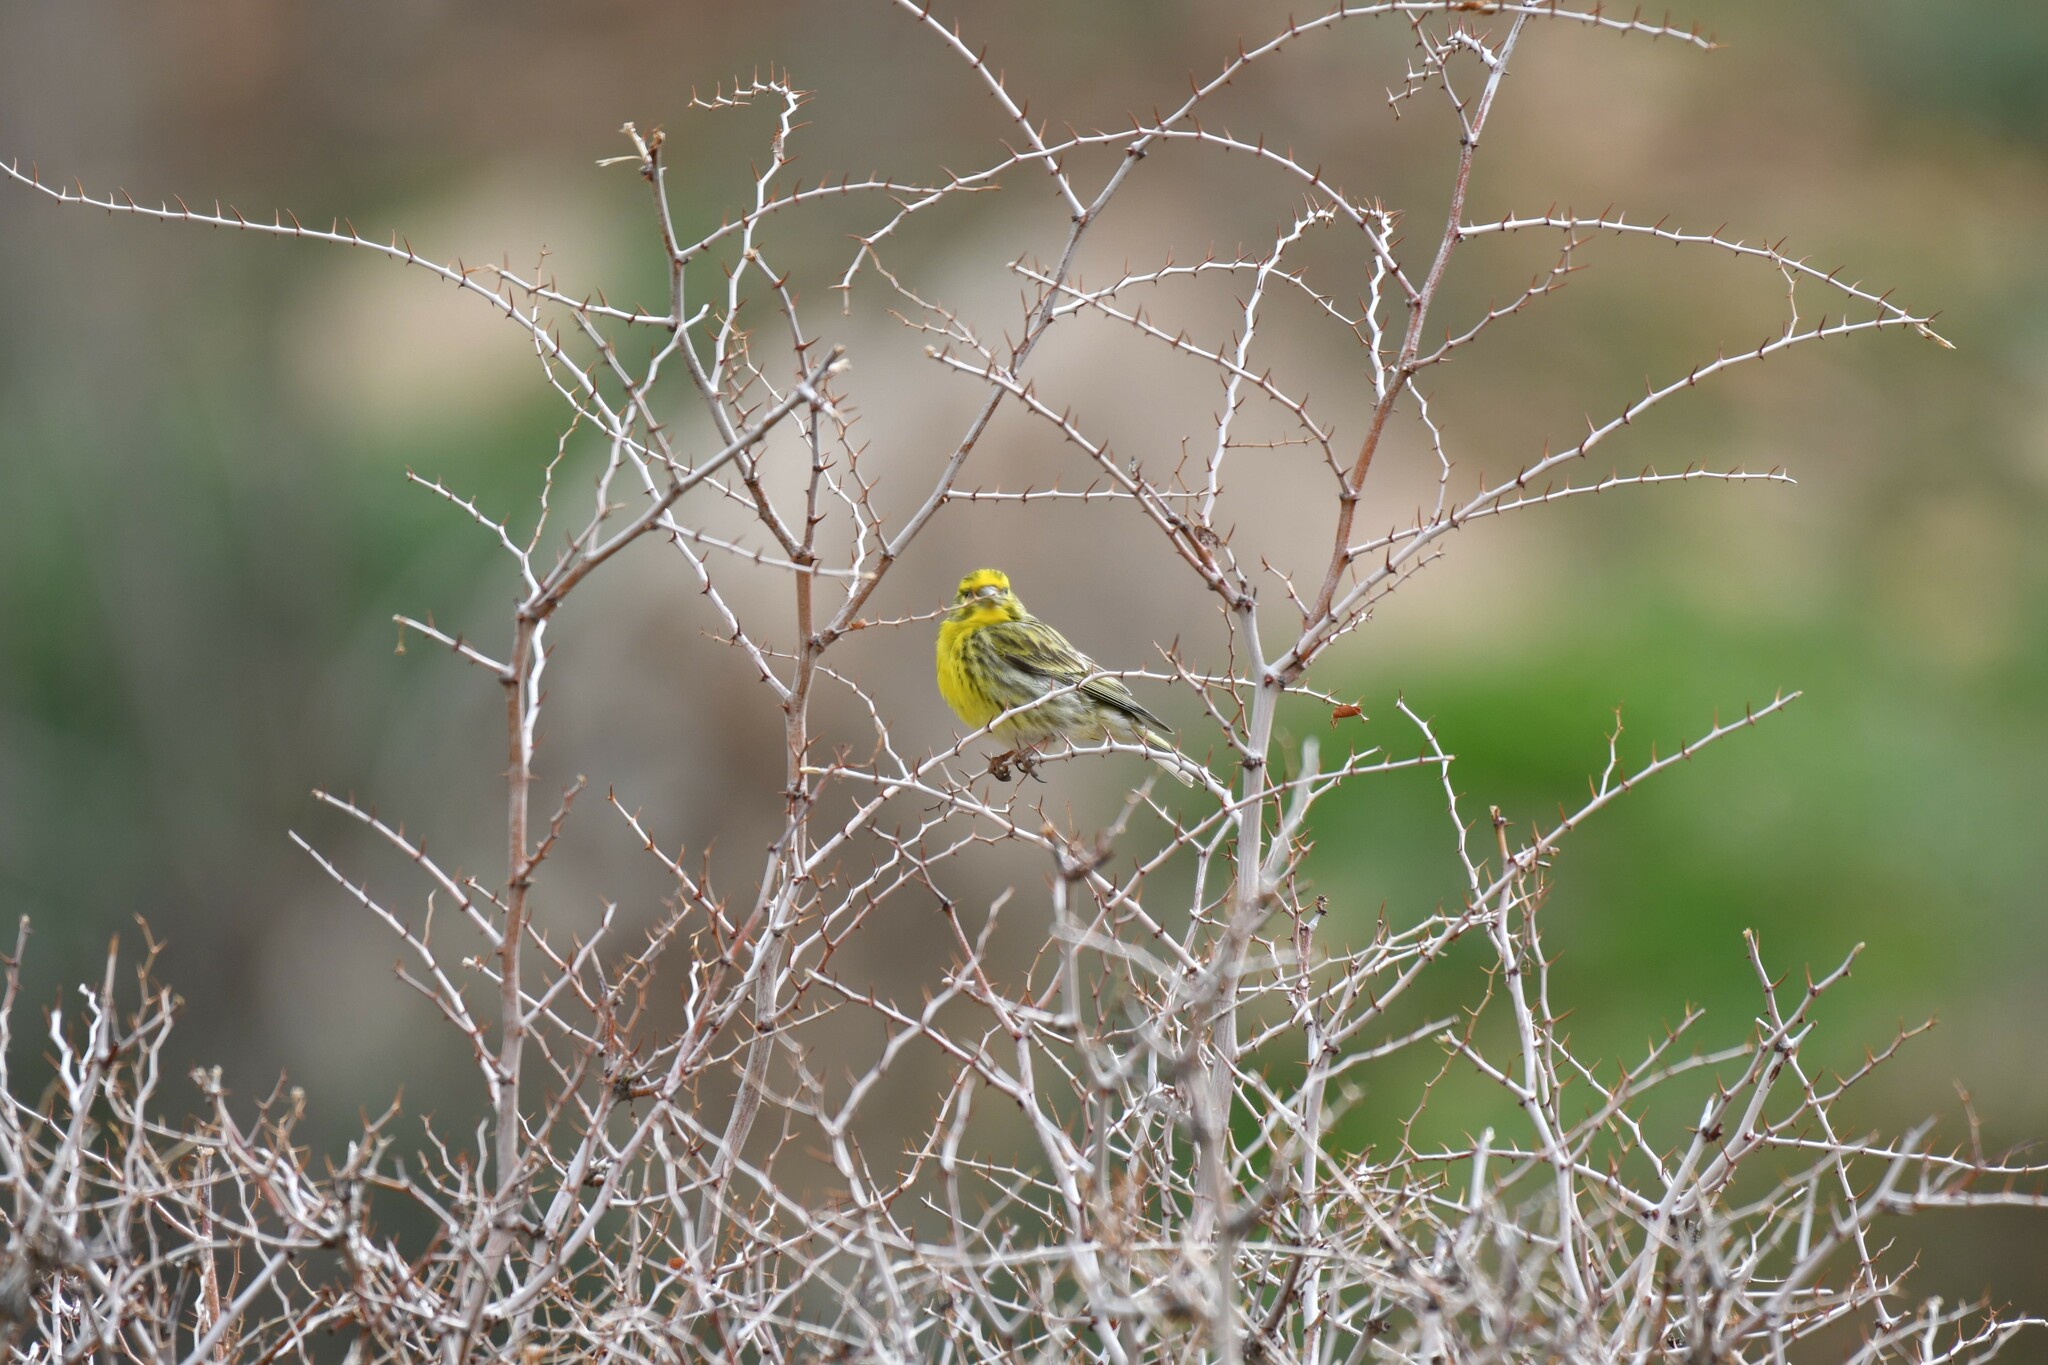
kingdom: Animalia
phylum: Chordata
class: Aves
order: Passeriformes
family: Fringillidae
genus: Serinus
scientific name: Serinus serinus
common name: European serin
